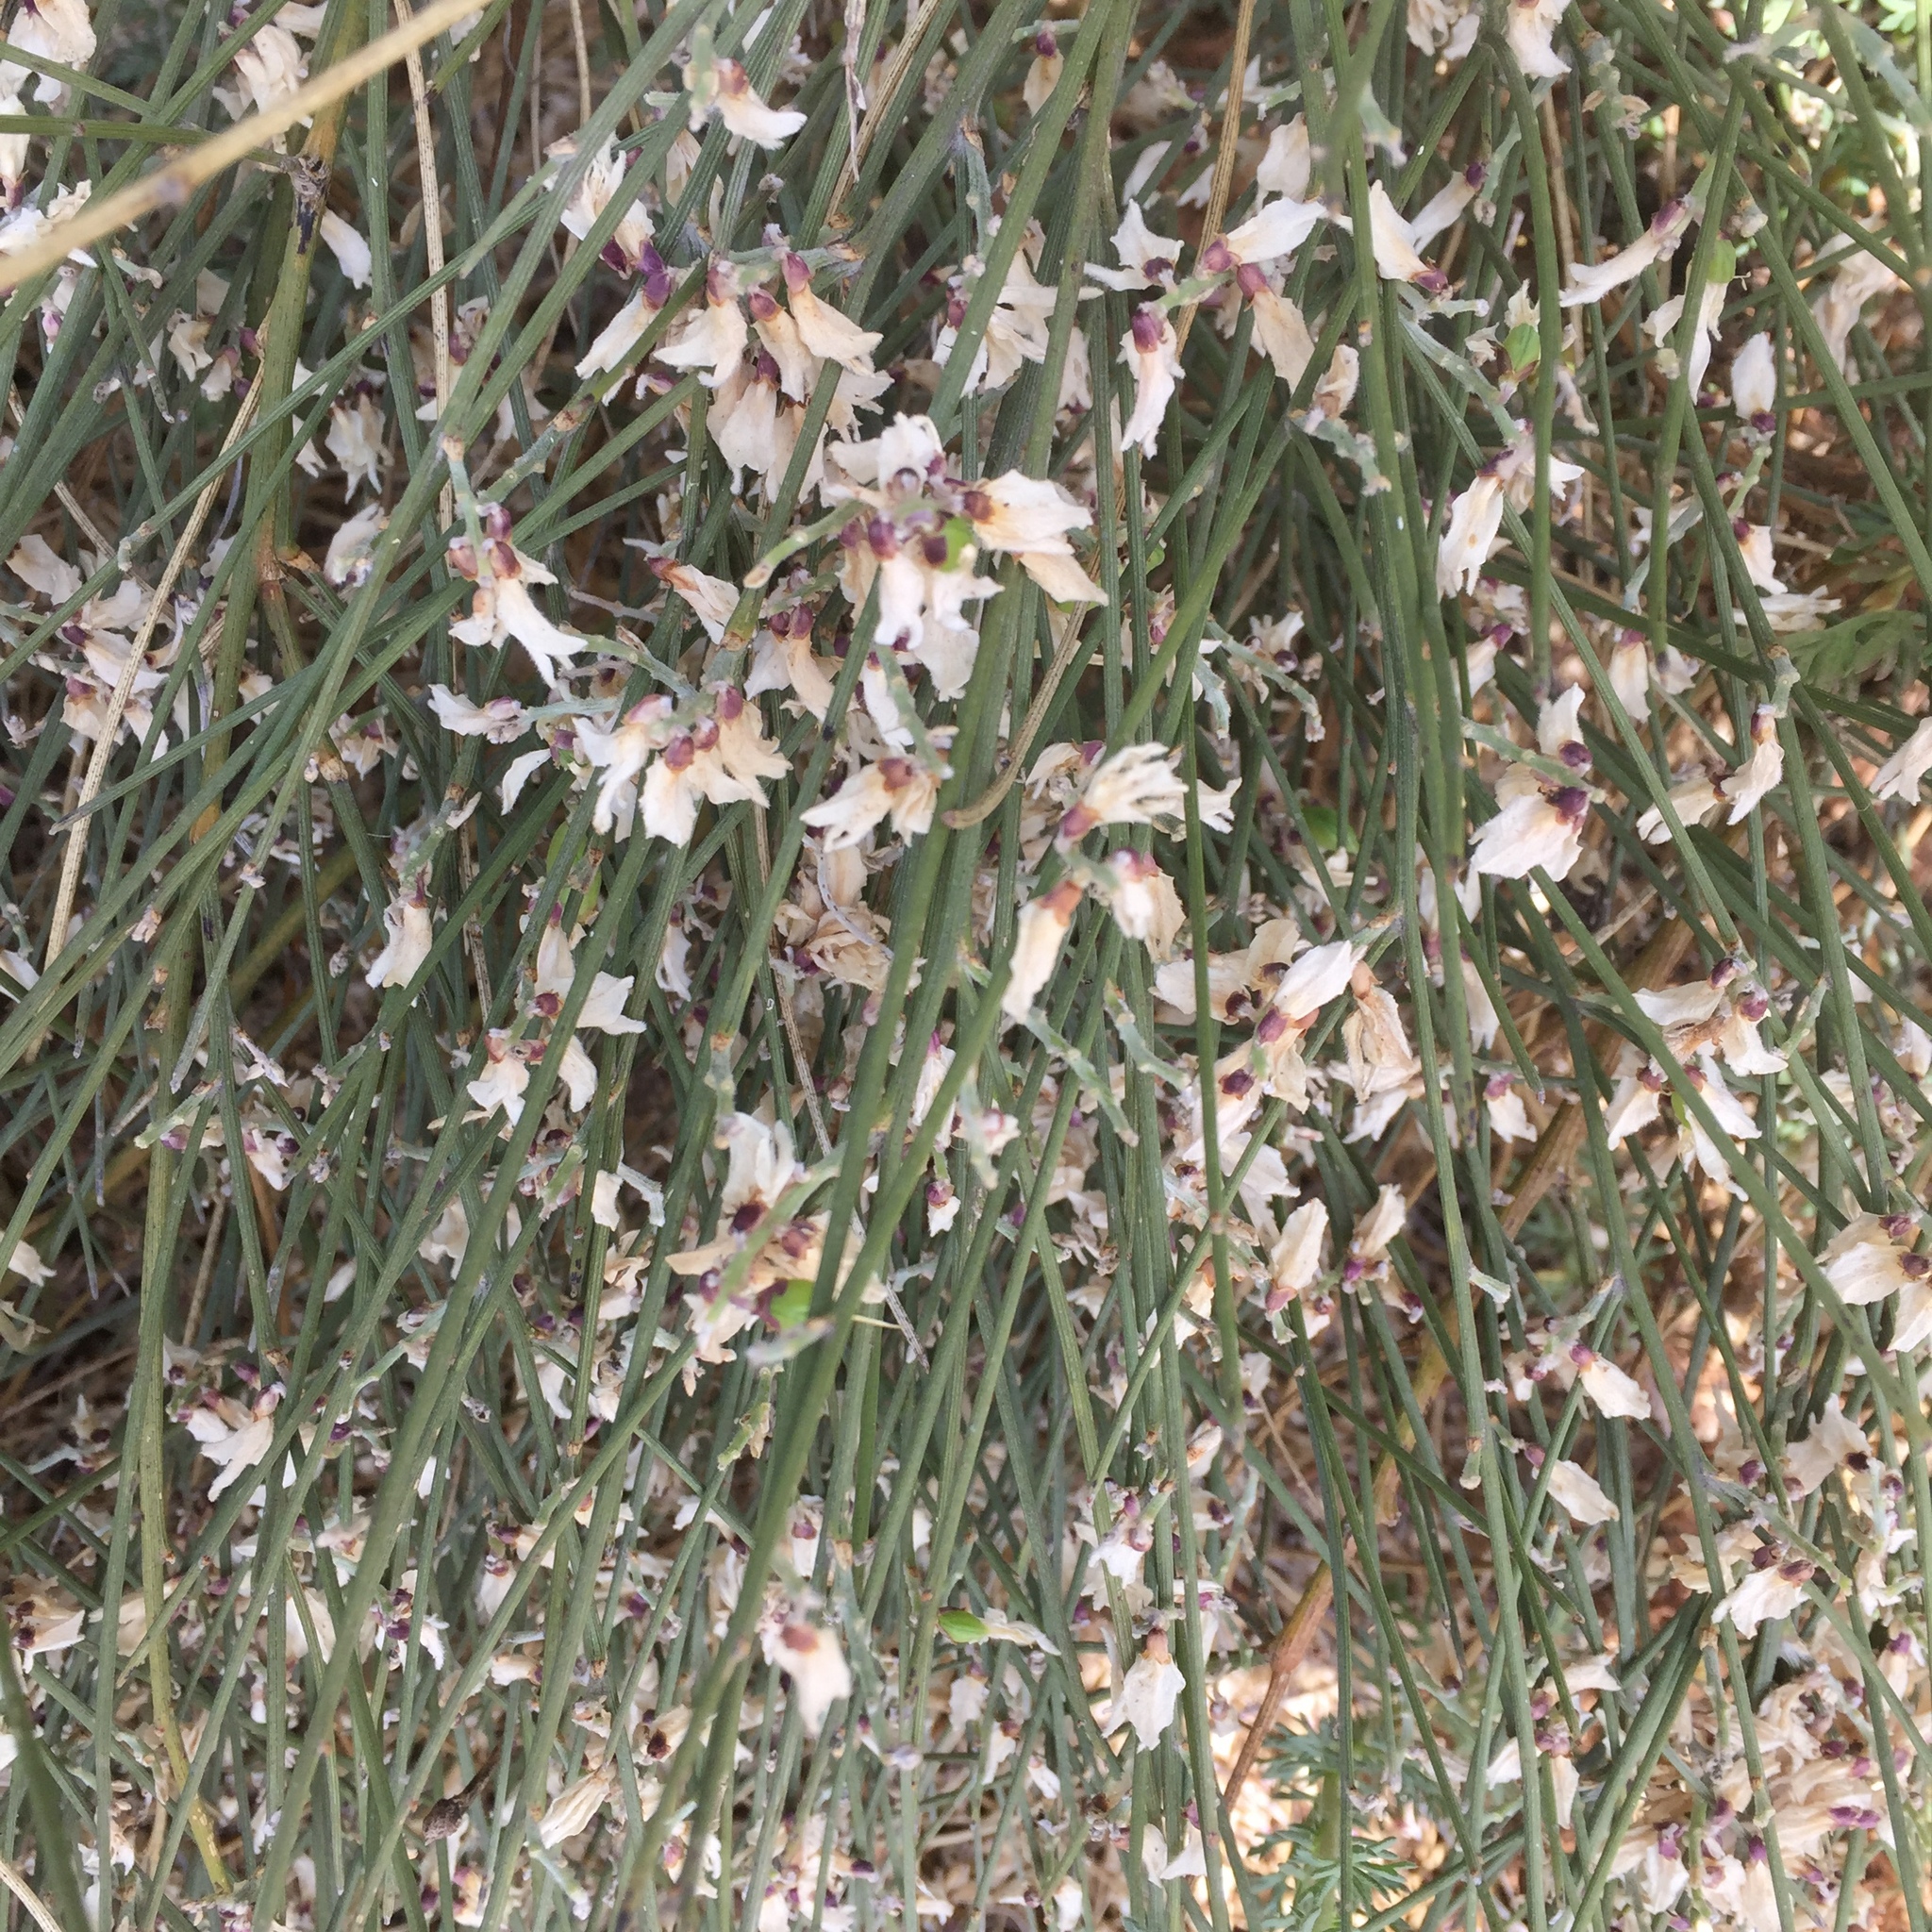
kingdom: Plantae
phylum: Tracheophyta
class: Magnoliopsida
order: Fabales
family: Fabaceae
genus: Retama
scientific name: Retama monosperma
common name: Bridal broom
